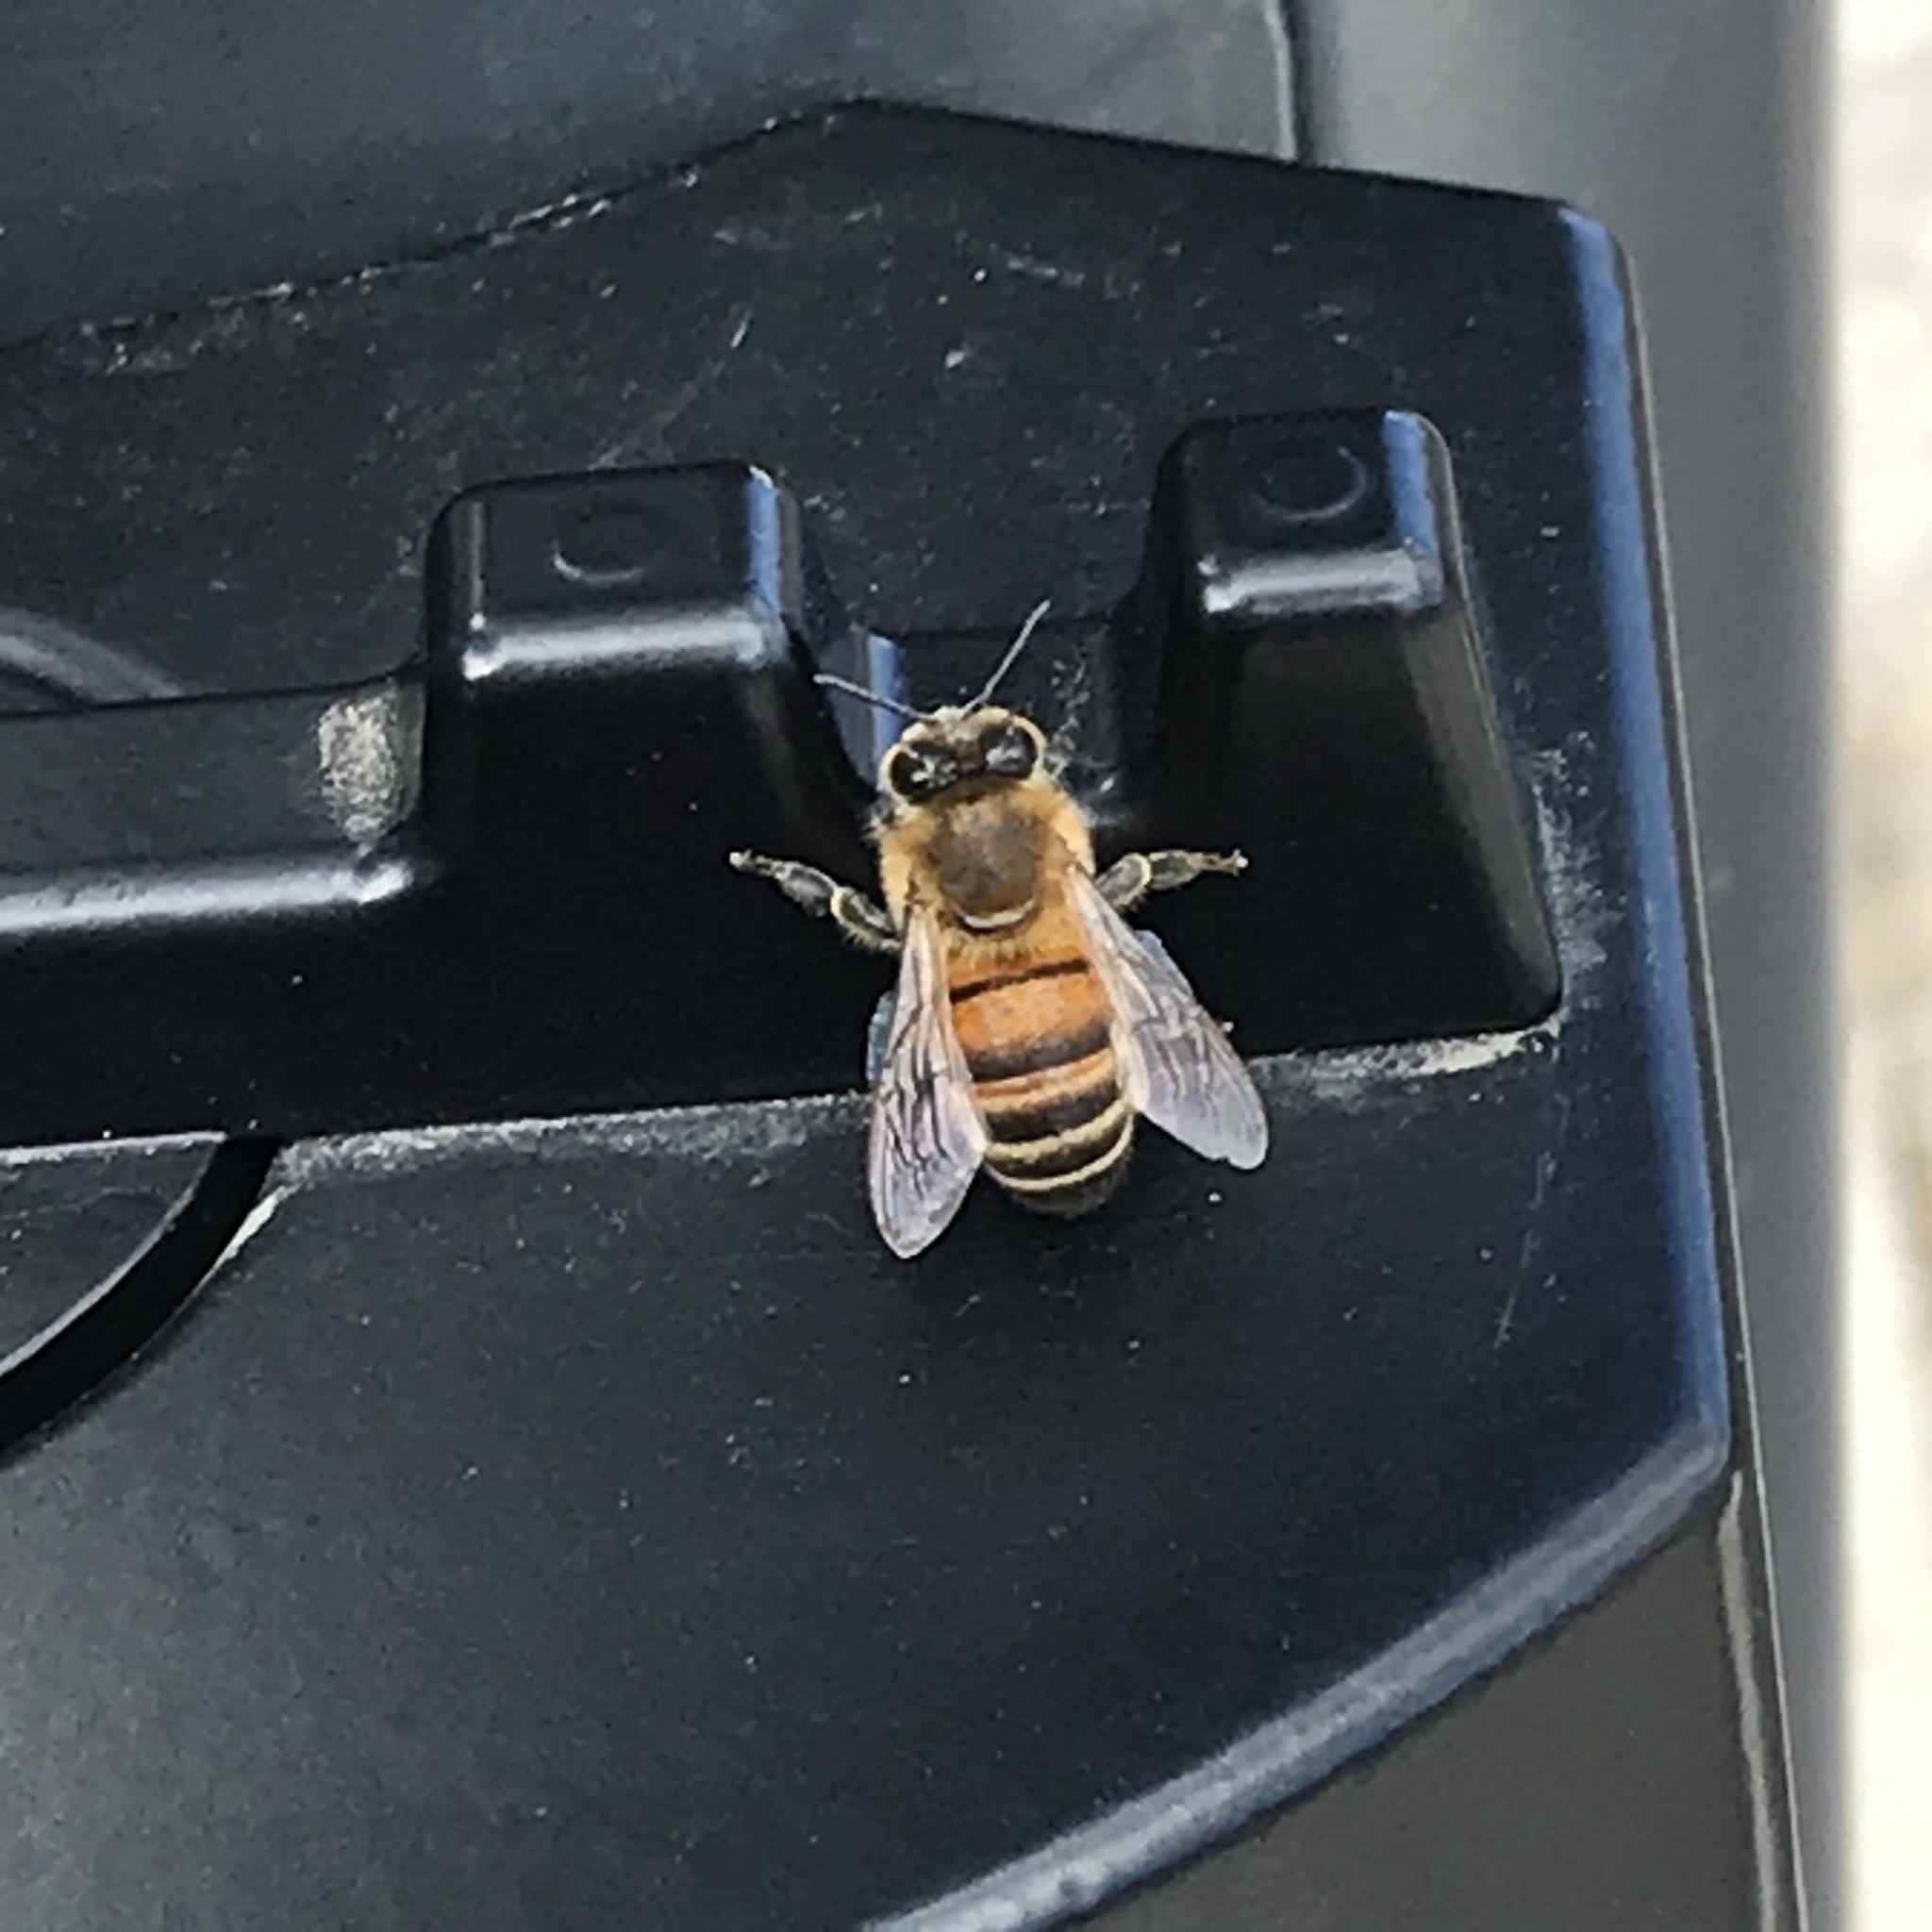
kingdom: Animalia
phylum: Arthropoda
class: Insecta
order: Hymenoptera
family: Apidae
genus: Apis
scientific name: Apis mellifera
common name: Honey bee
